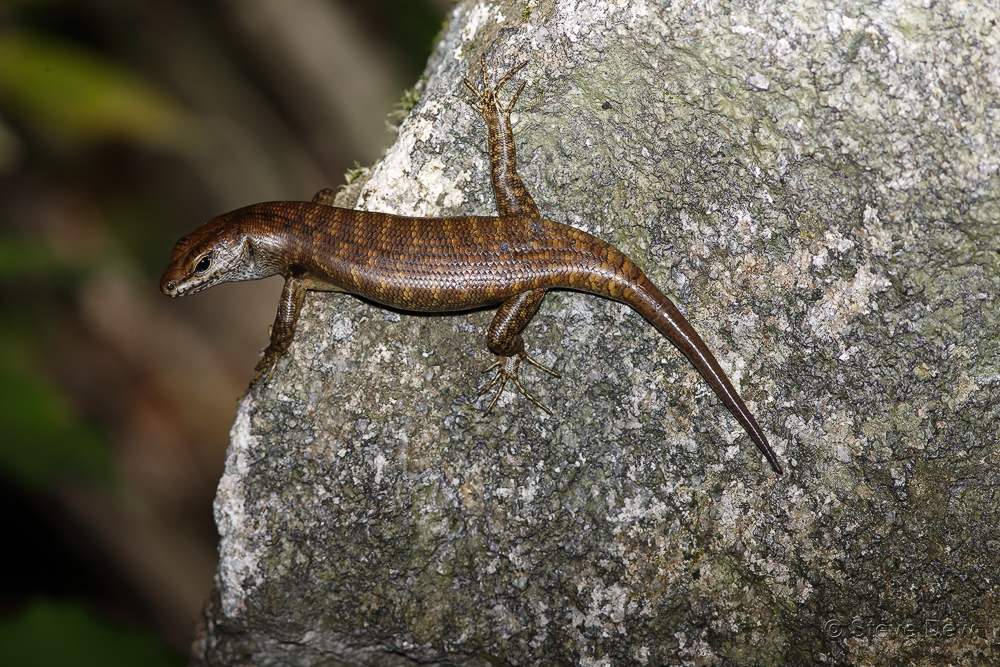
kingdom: Animalia
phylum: Chordata
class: Squamata
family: Scincidae
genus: Concinnia
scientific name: Concinnia ampla
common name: Lemon-barred forest-skink
